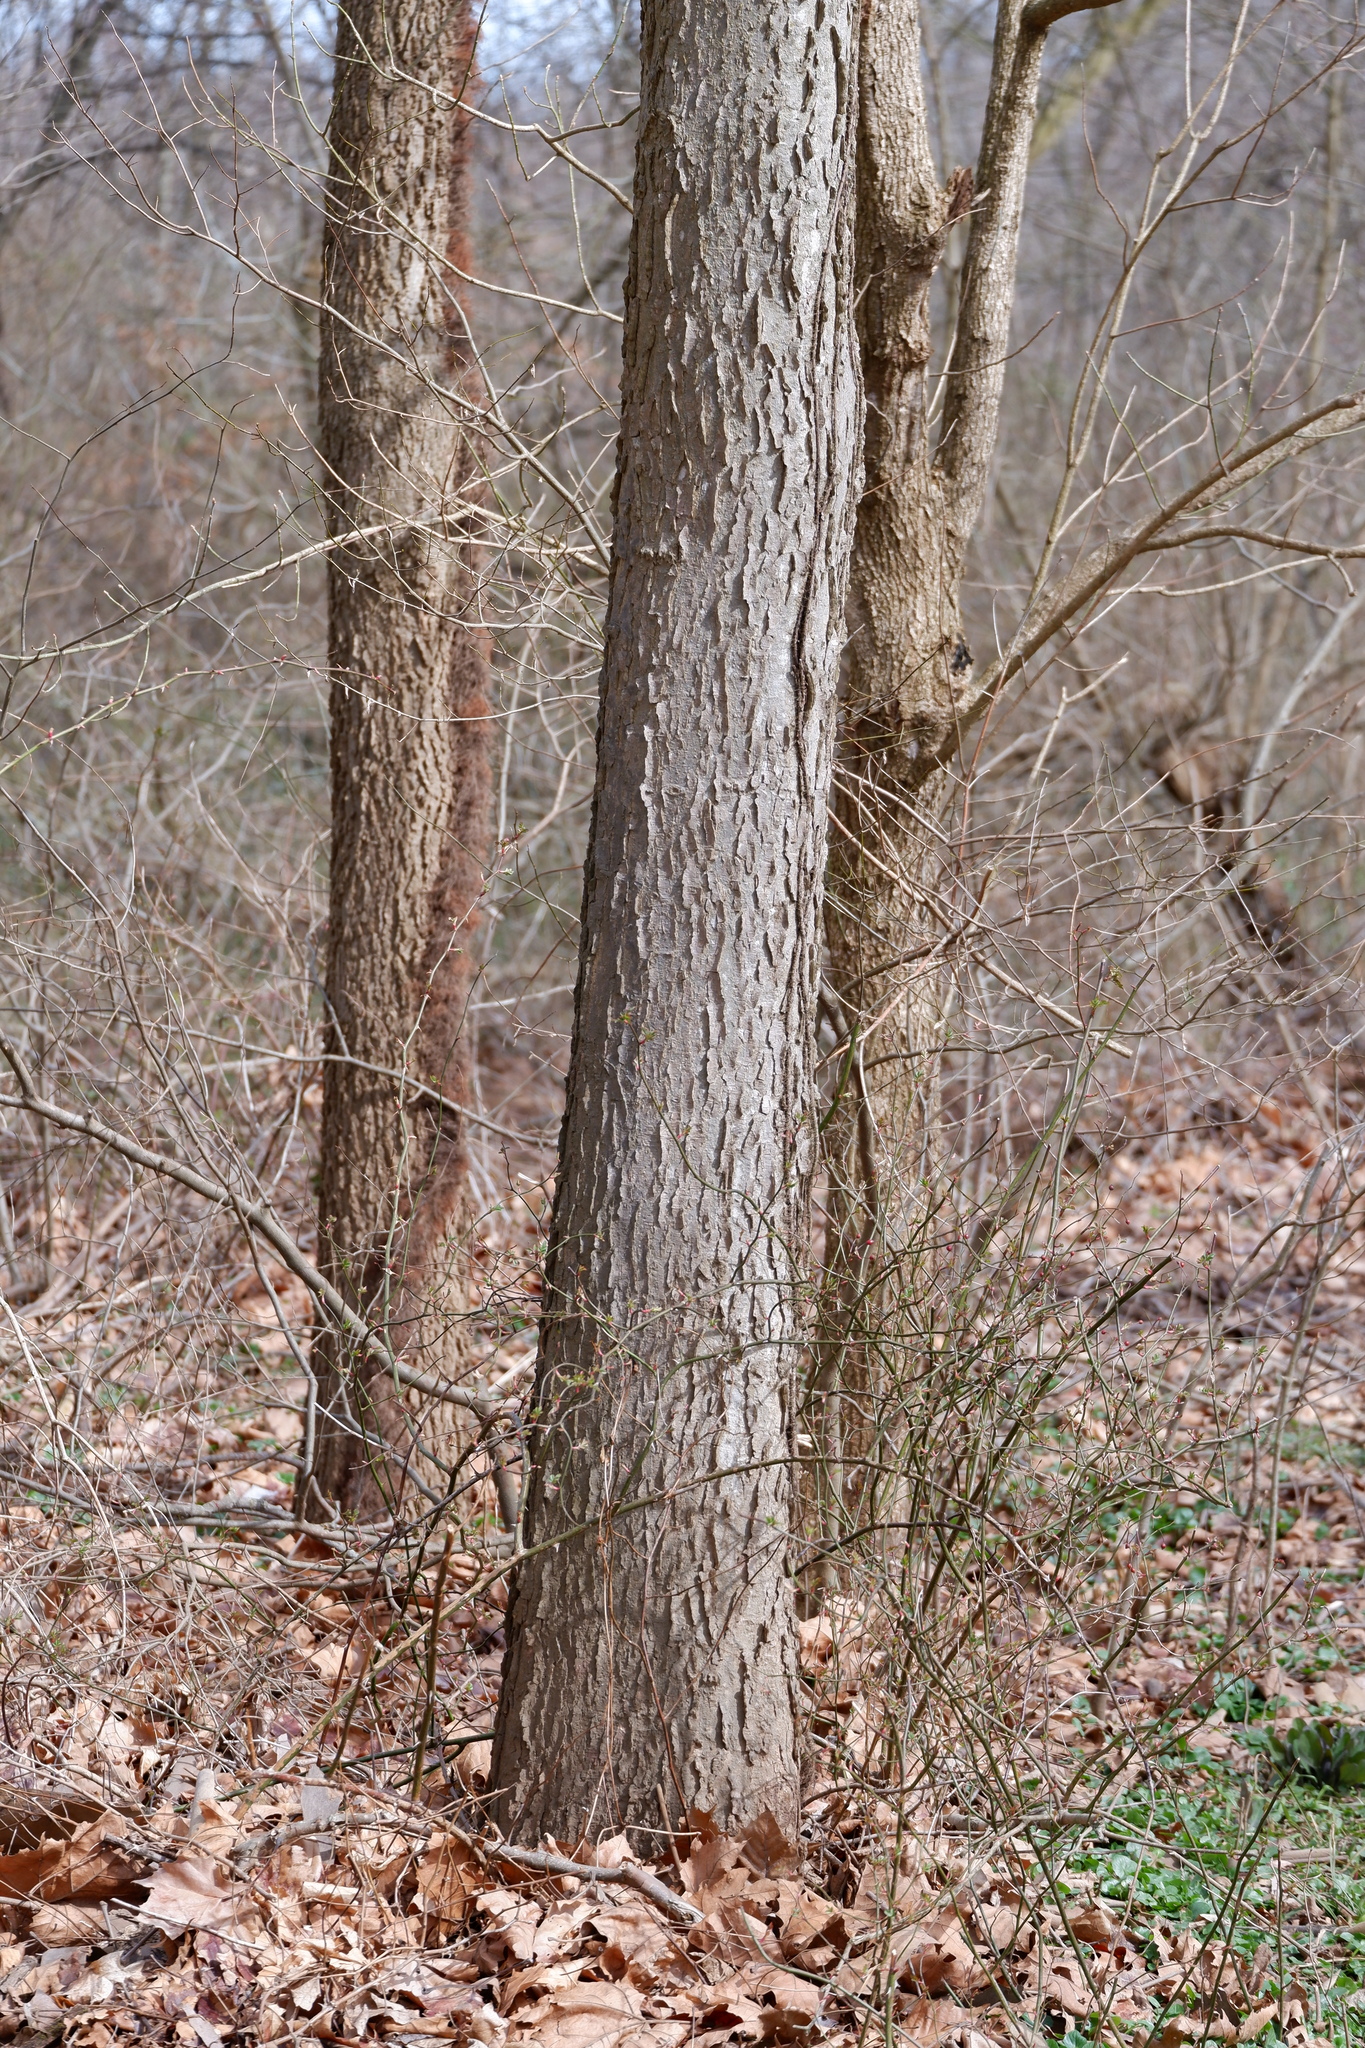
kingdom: Plantae
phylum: Tracheophyta
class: Magnoliopsida
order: Rosales
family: Cannabaceae
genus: Celtis
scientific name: Celtis occidentalis
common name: Common hackberry
